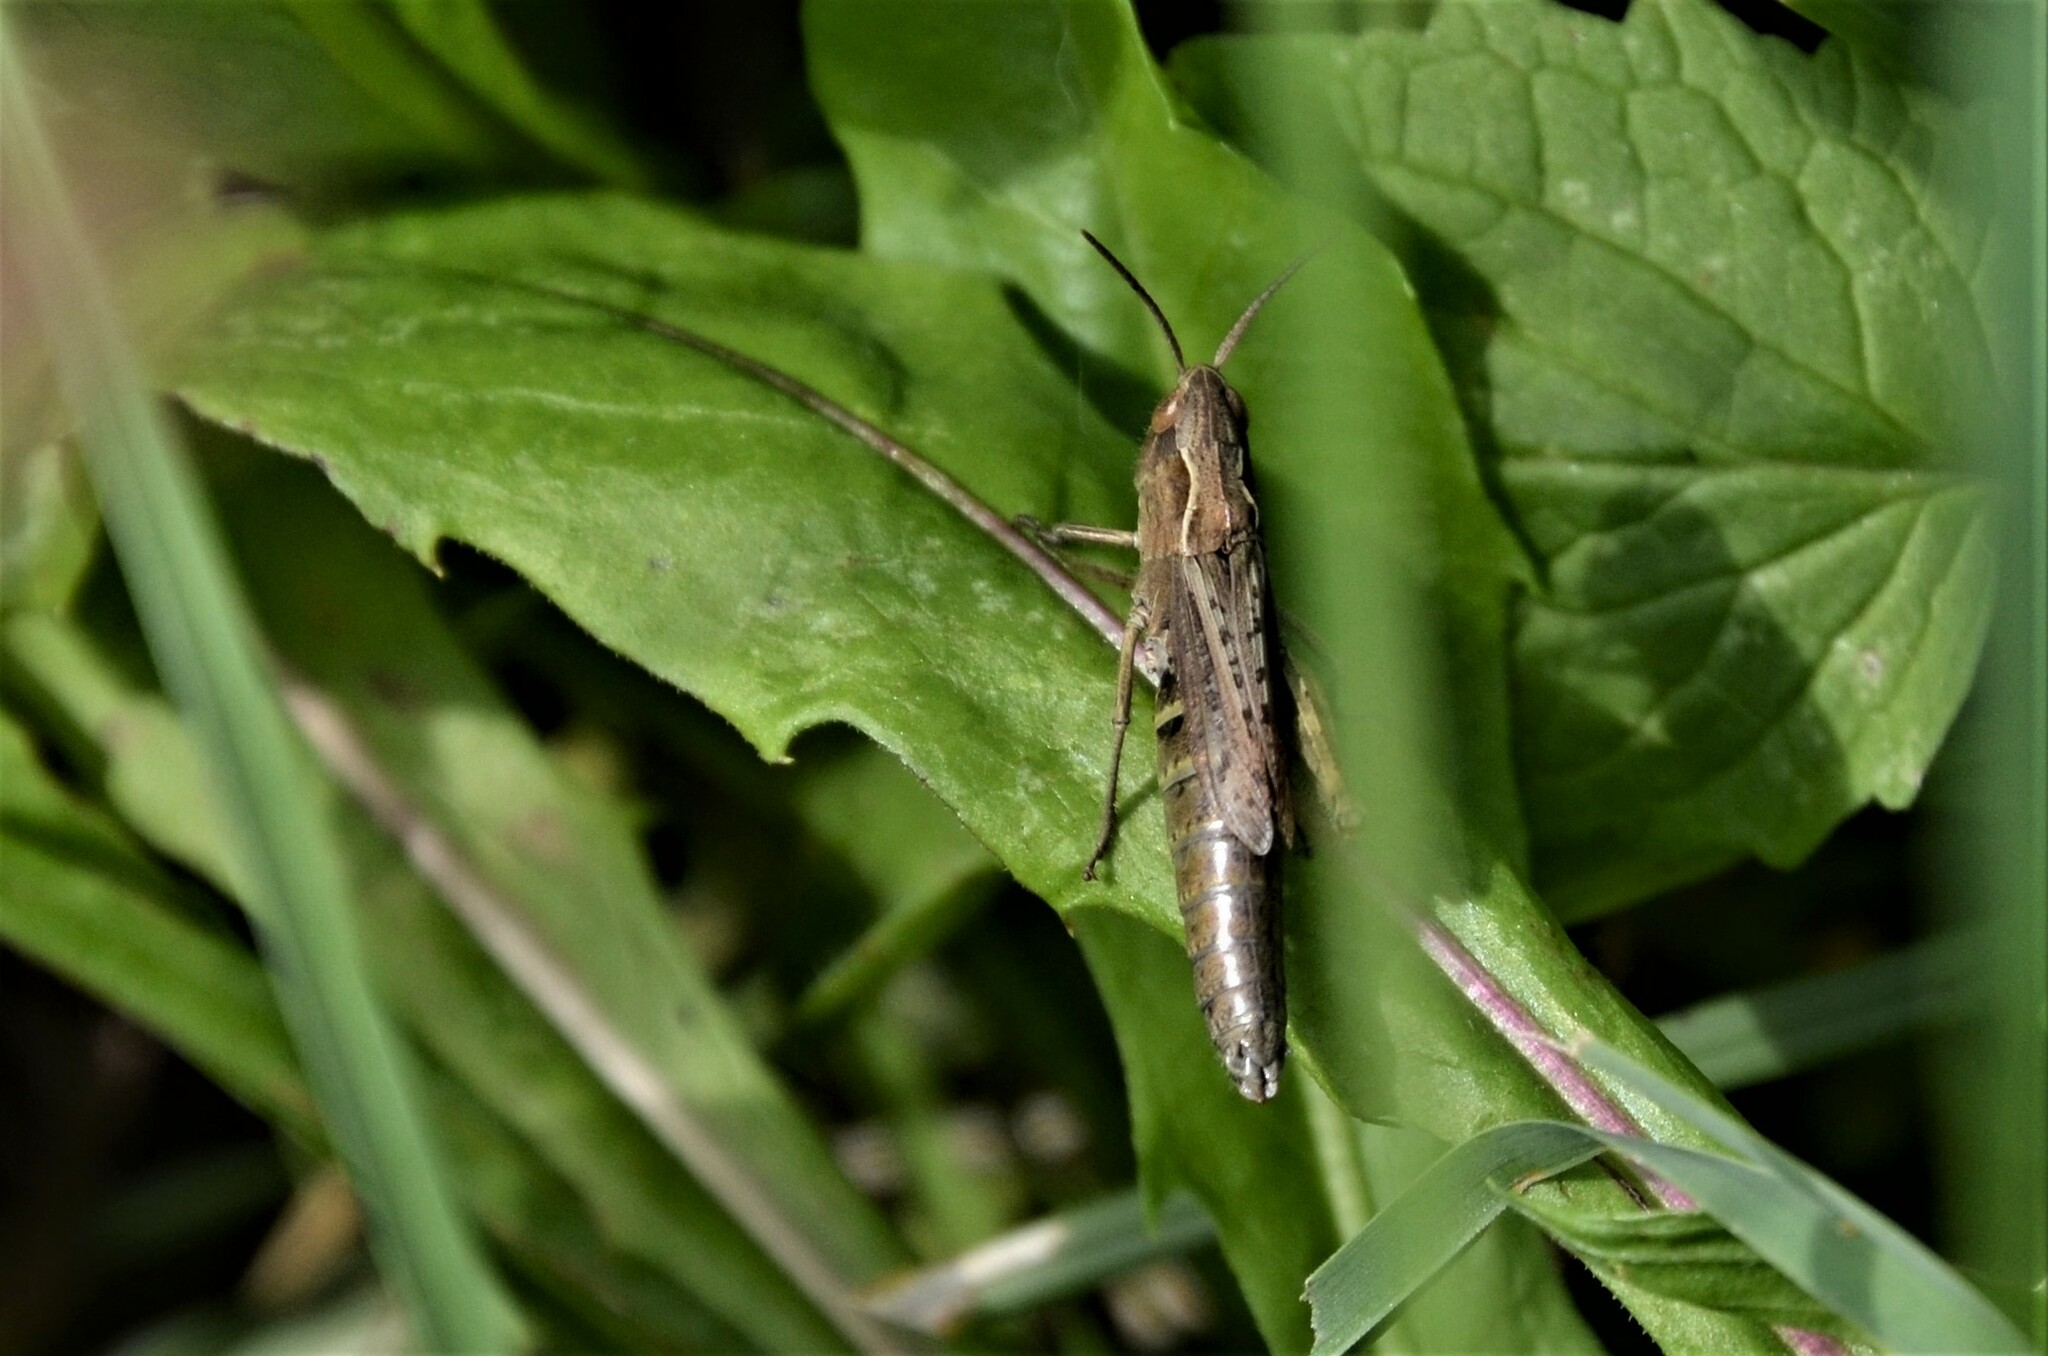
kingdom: Animalia
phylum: Arthropoda
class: Insecta
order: Orthoptera
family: Acrididae
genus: Chorthippus
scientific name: Chorthippus dorsatus
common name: Steppe grasshopper
